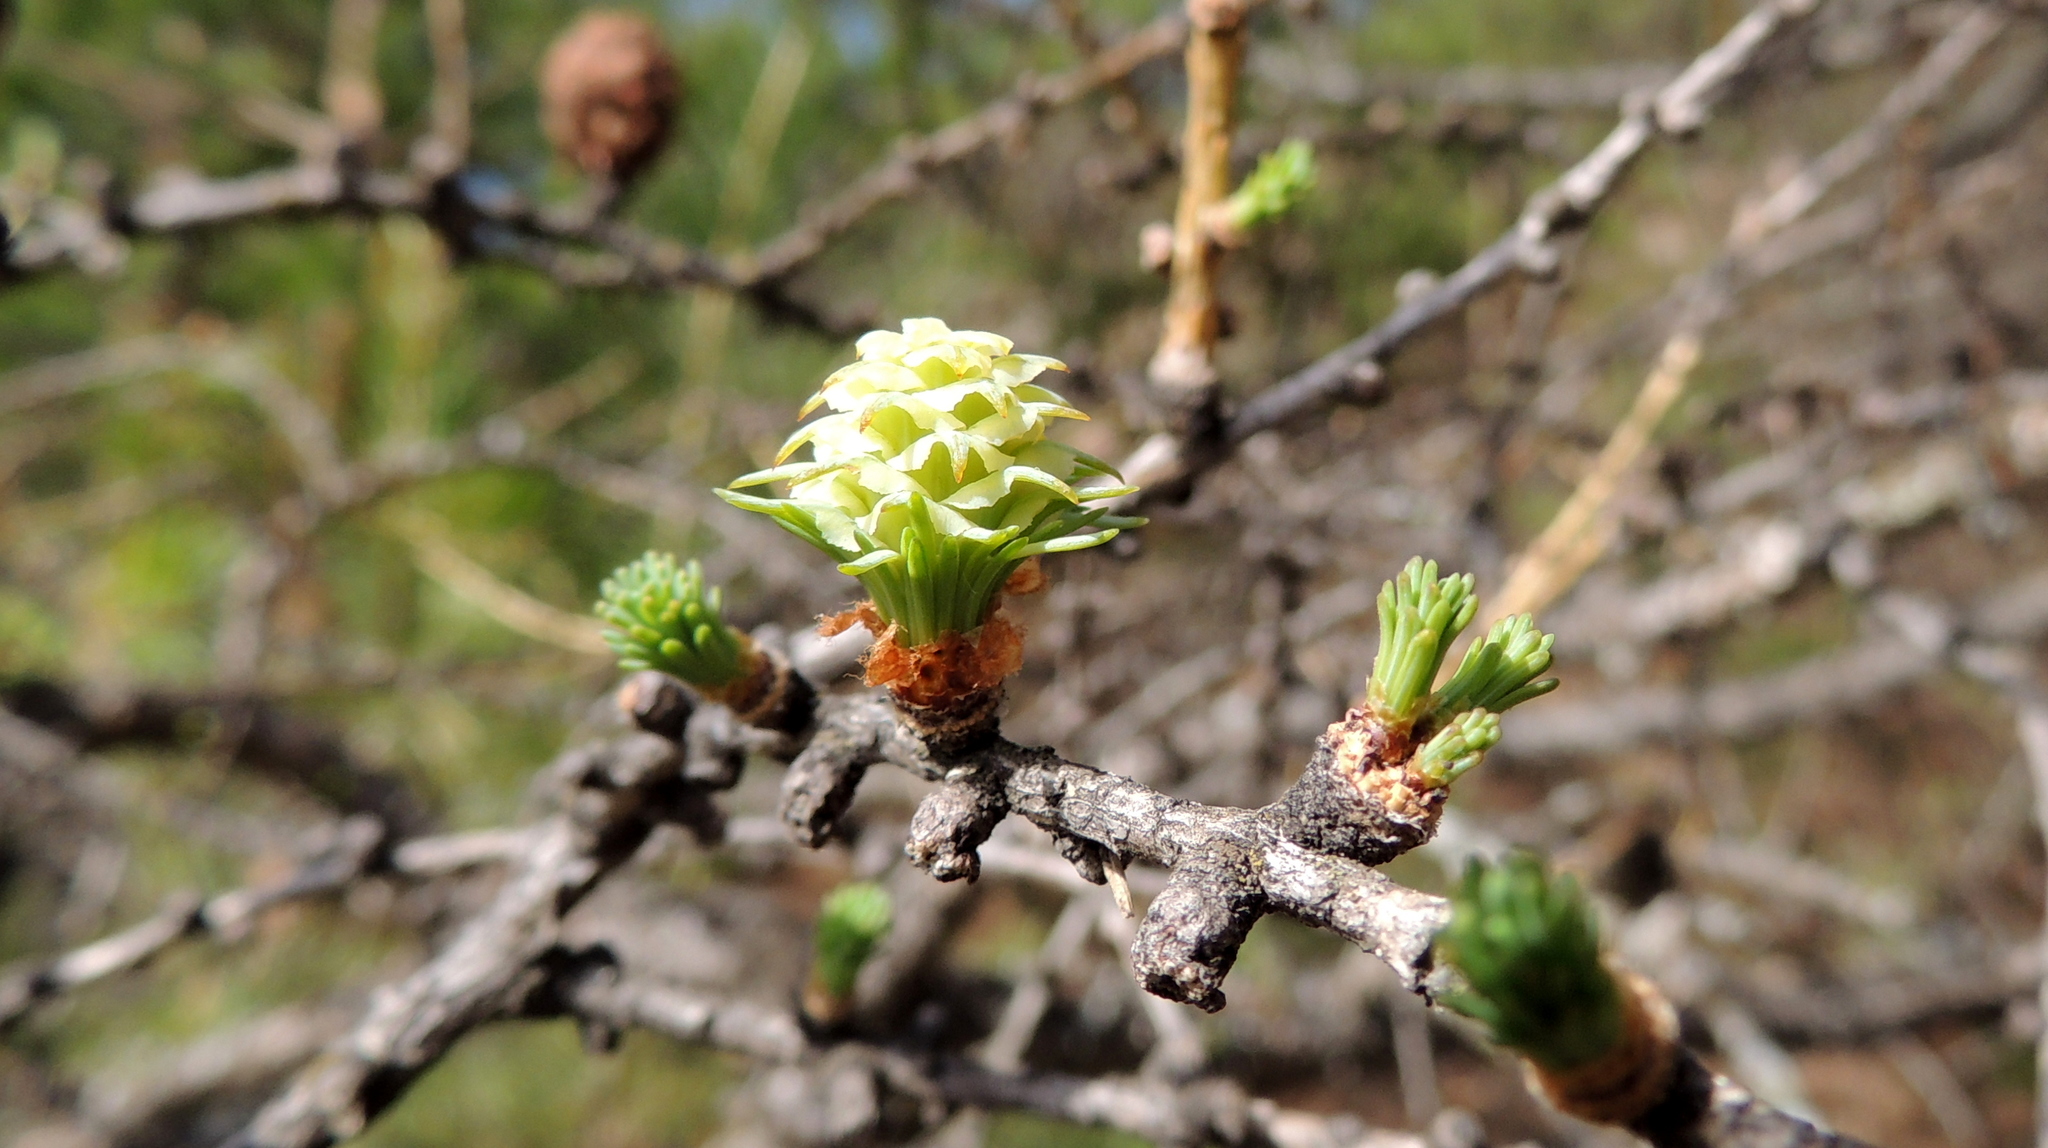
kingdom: Plantae
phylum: Tracheophyta
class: Pinopsida
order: Pinales
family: Pinaceae
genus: Larix
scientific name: Larix sibirica
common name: Siberian larch
